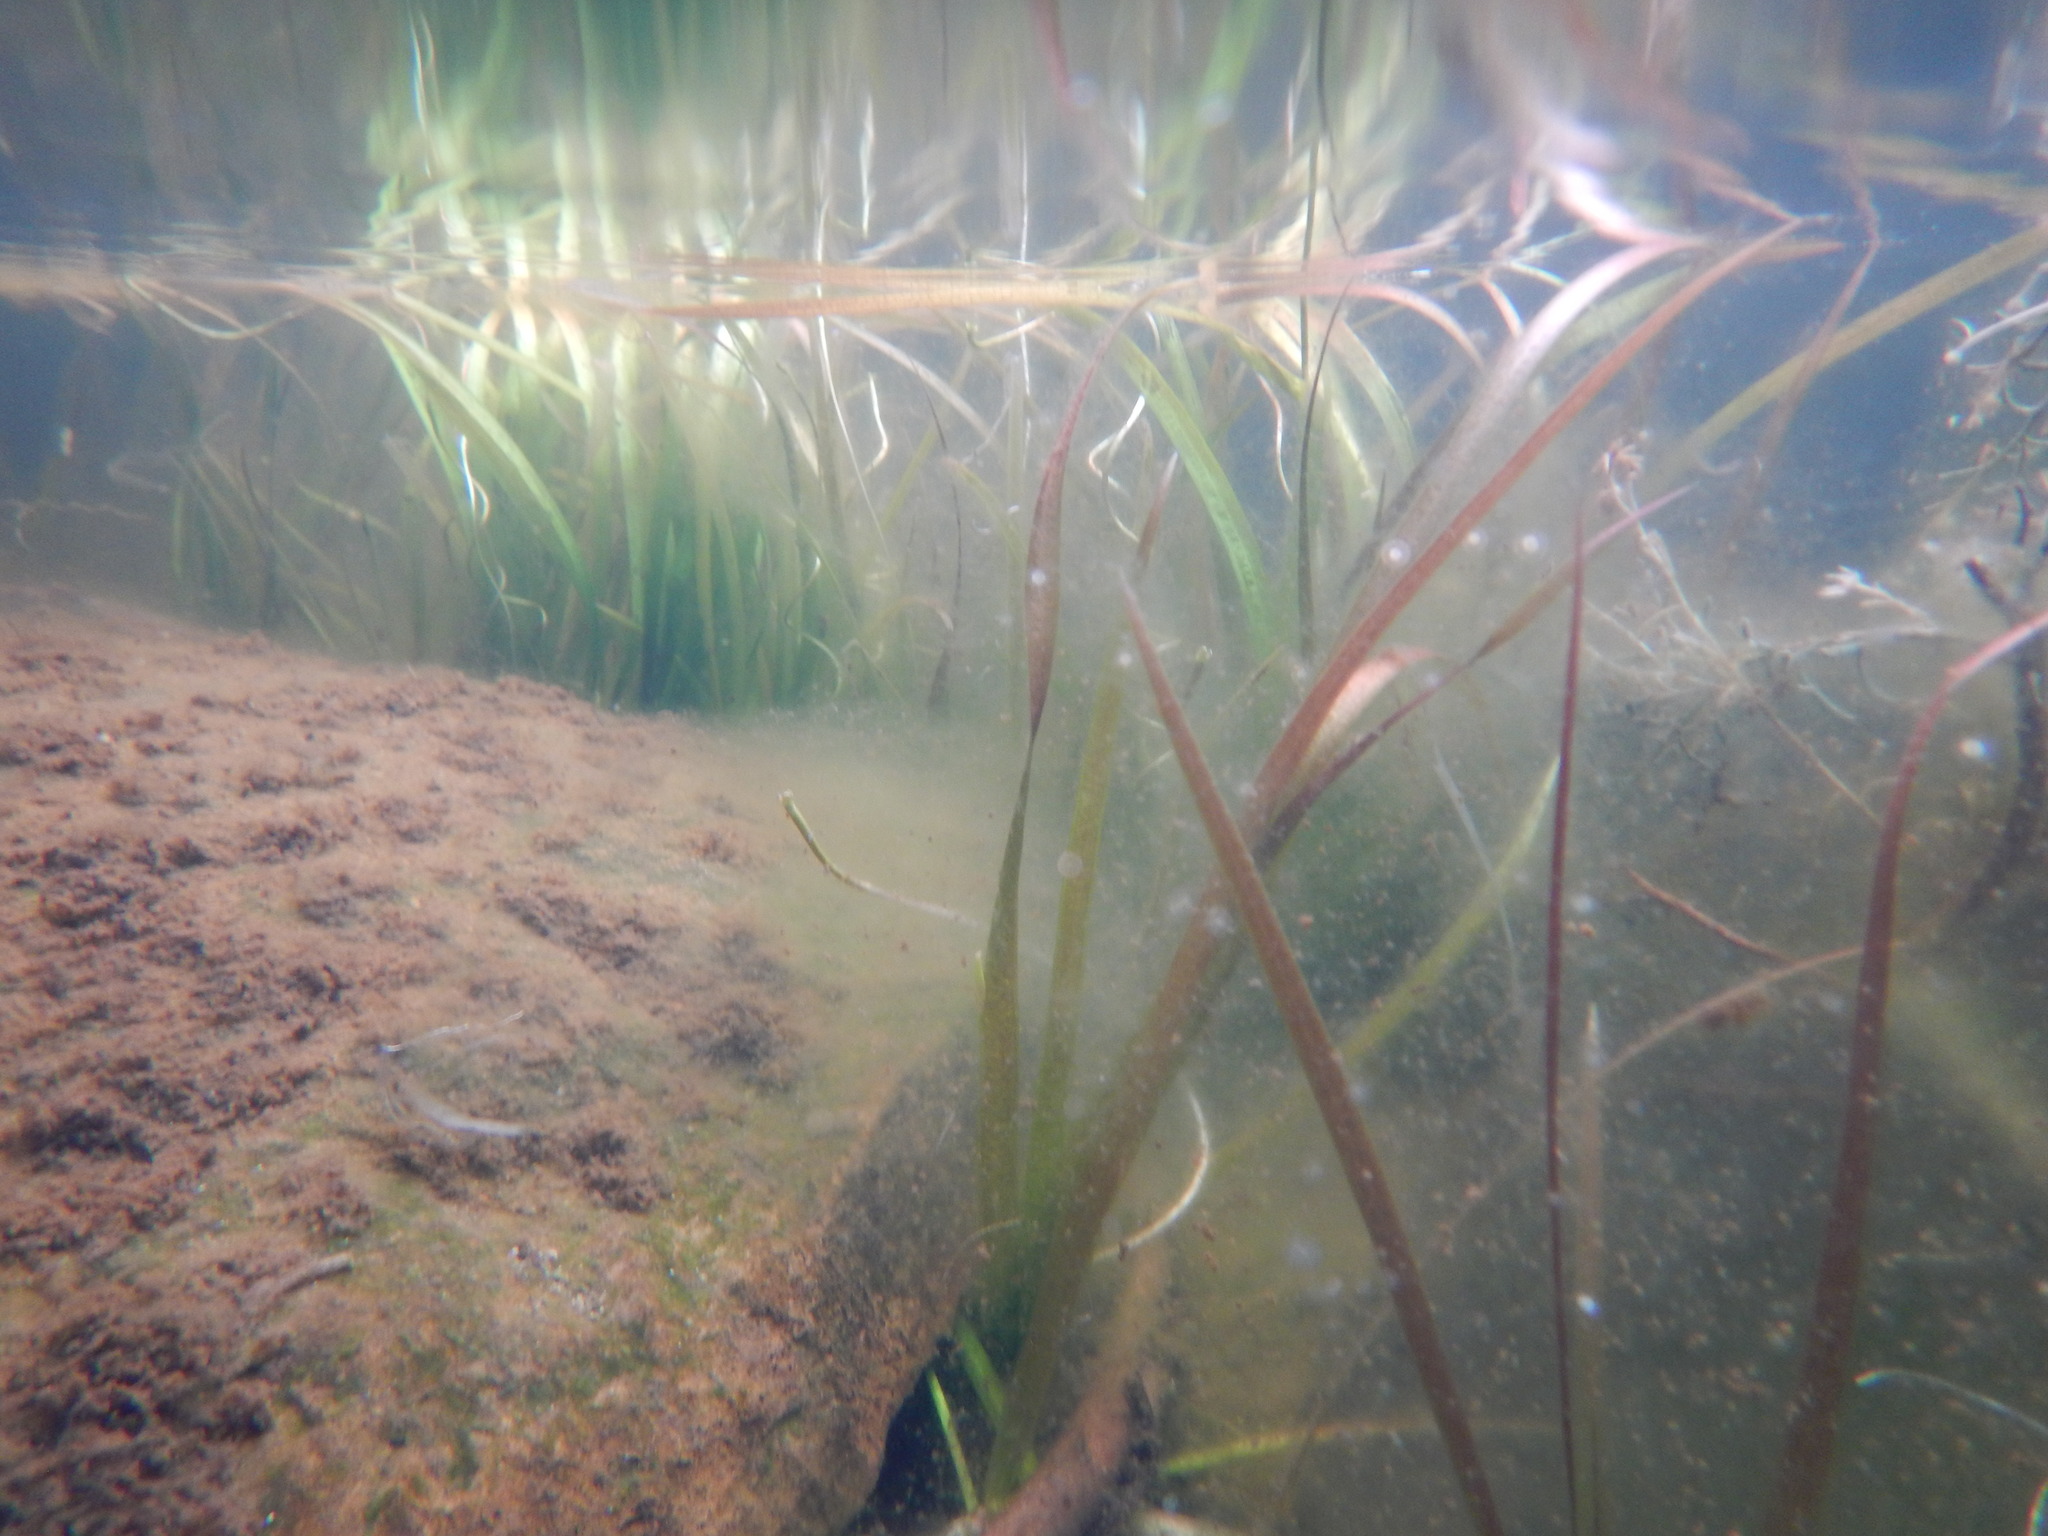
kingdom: Plantae
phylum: Tracheophyta
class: Liliopsida
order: Alismatales
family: Hydrocharitaceae
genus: Vallisneria
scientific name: Vallisneria annua
